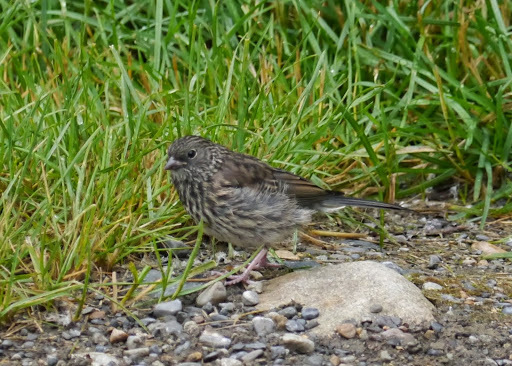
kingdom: Animalia
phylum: Chordata
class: Aves
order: Passeriformes
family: Passerellidae
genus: Junco
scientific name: Junco hyemalis
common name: Dark-eyed junco
